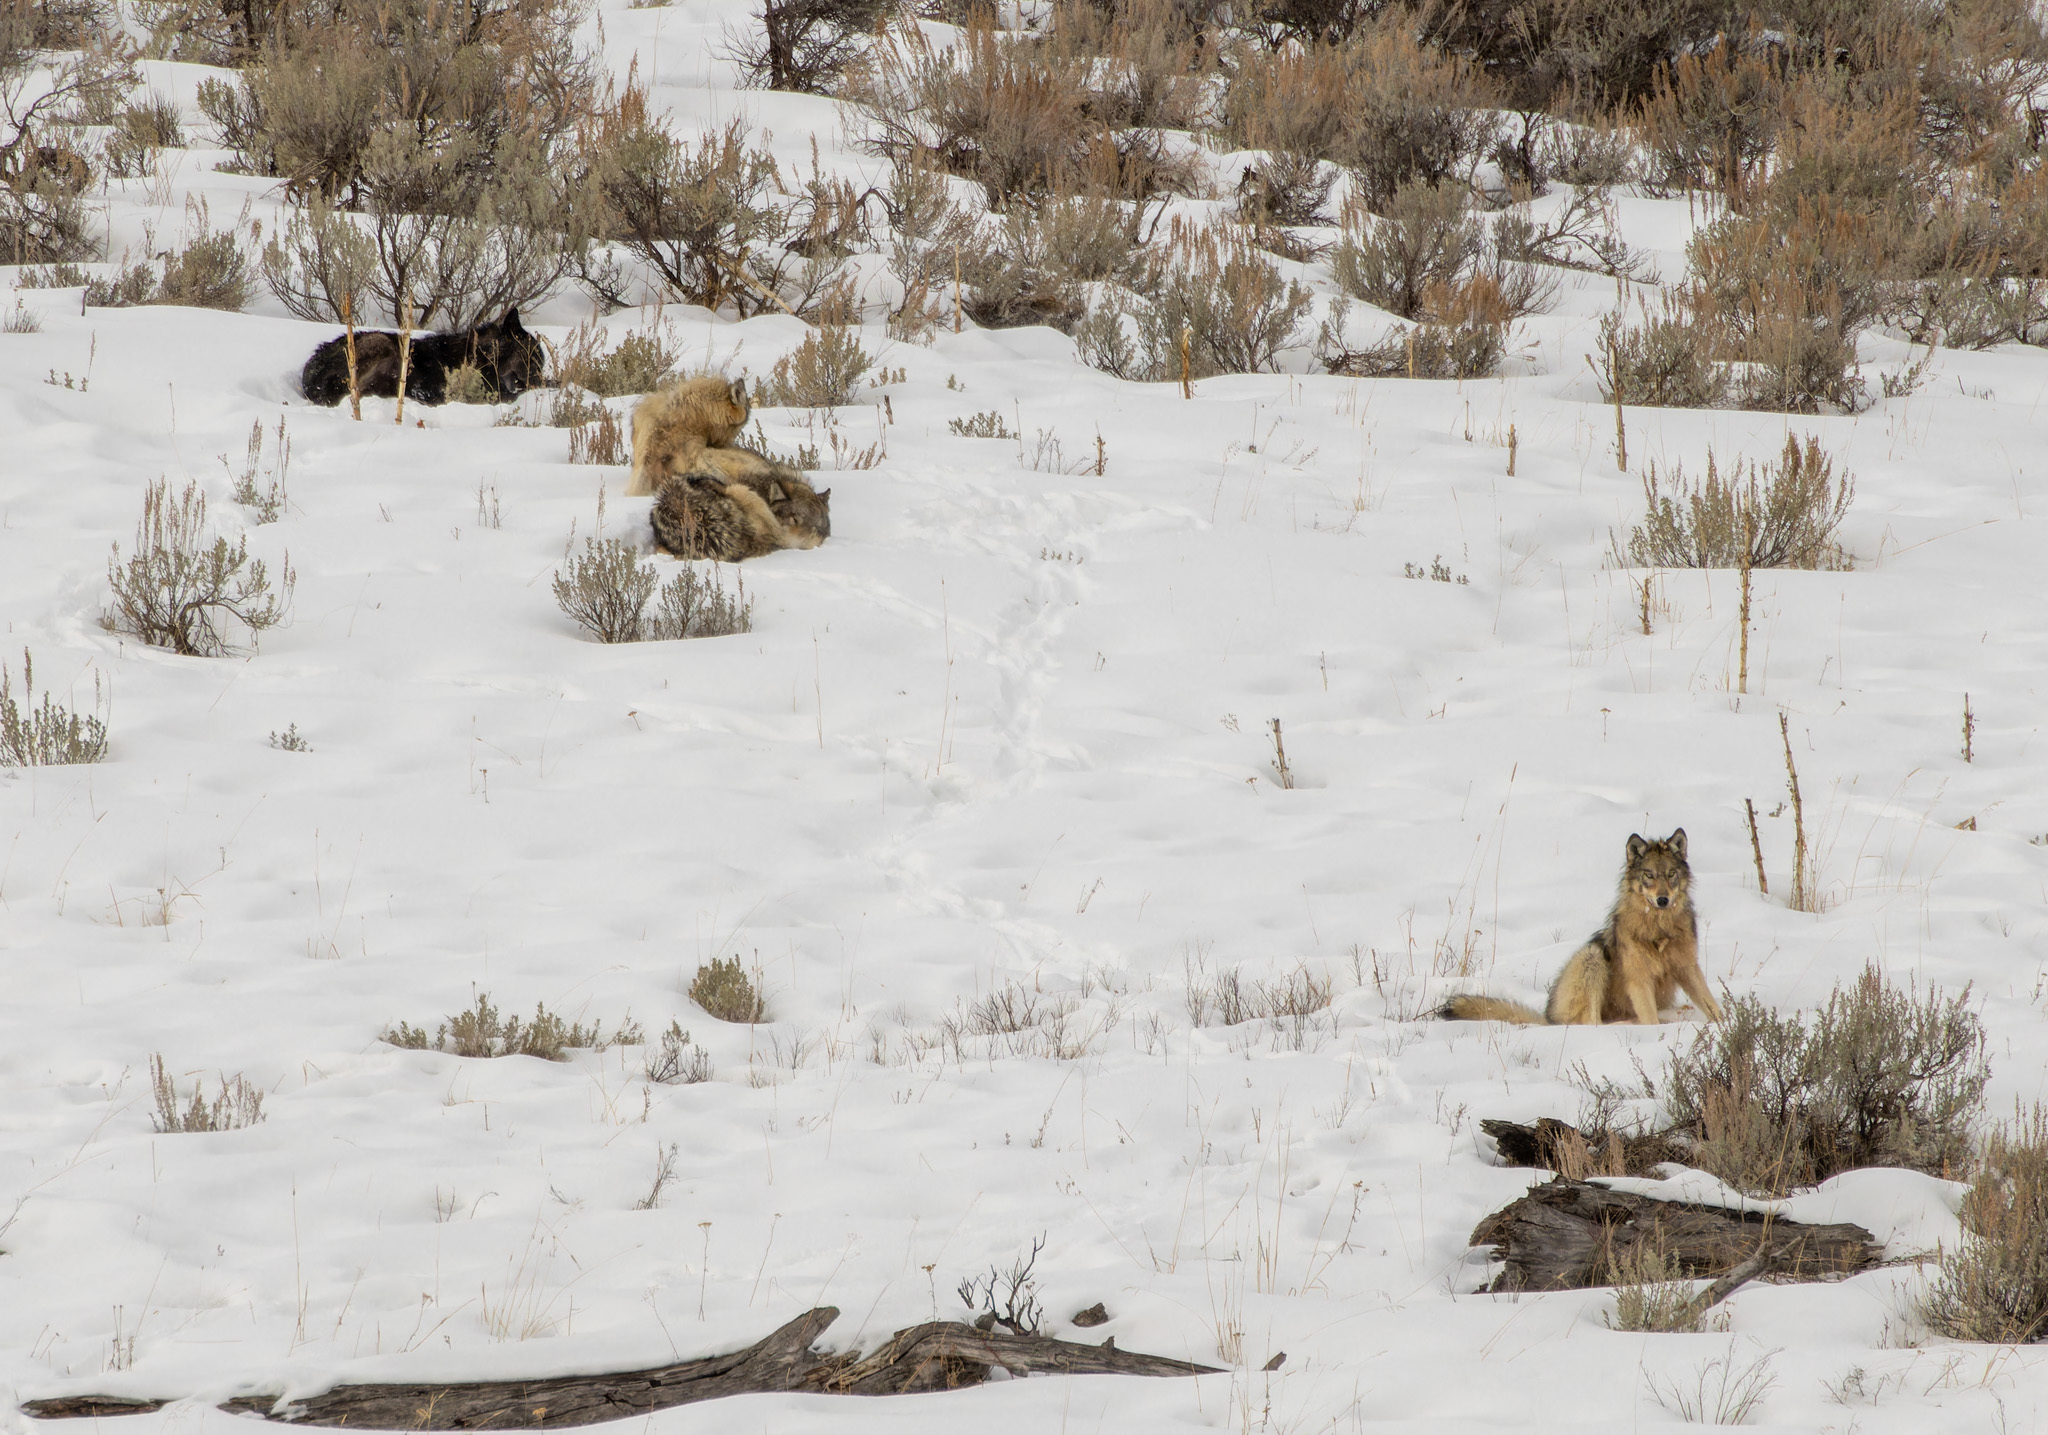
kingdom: Animalia
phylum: Chordata
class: Mammalia
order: Carnivora
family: Canidae
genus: Canis
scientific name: Canis lupus
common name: Gray wolf
